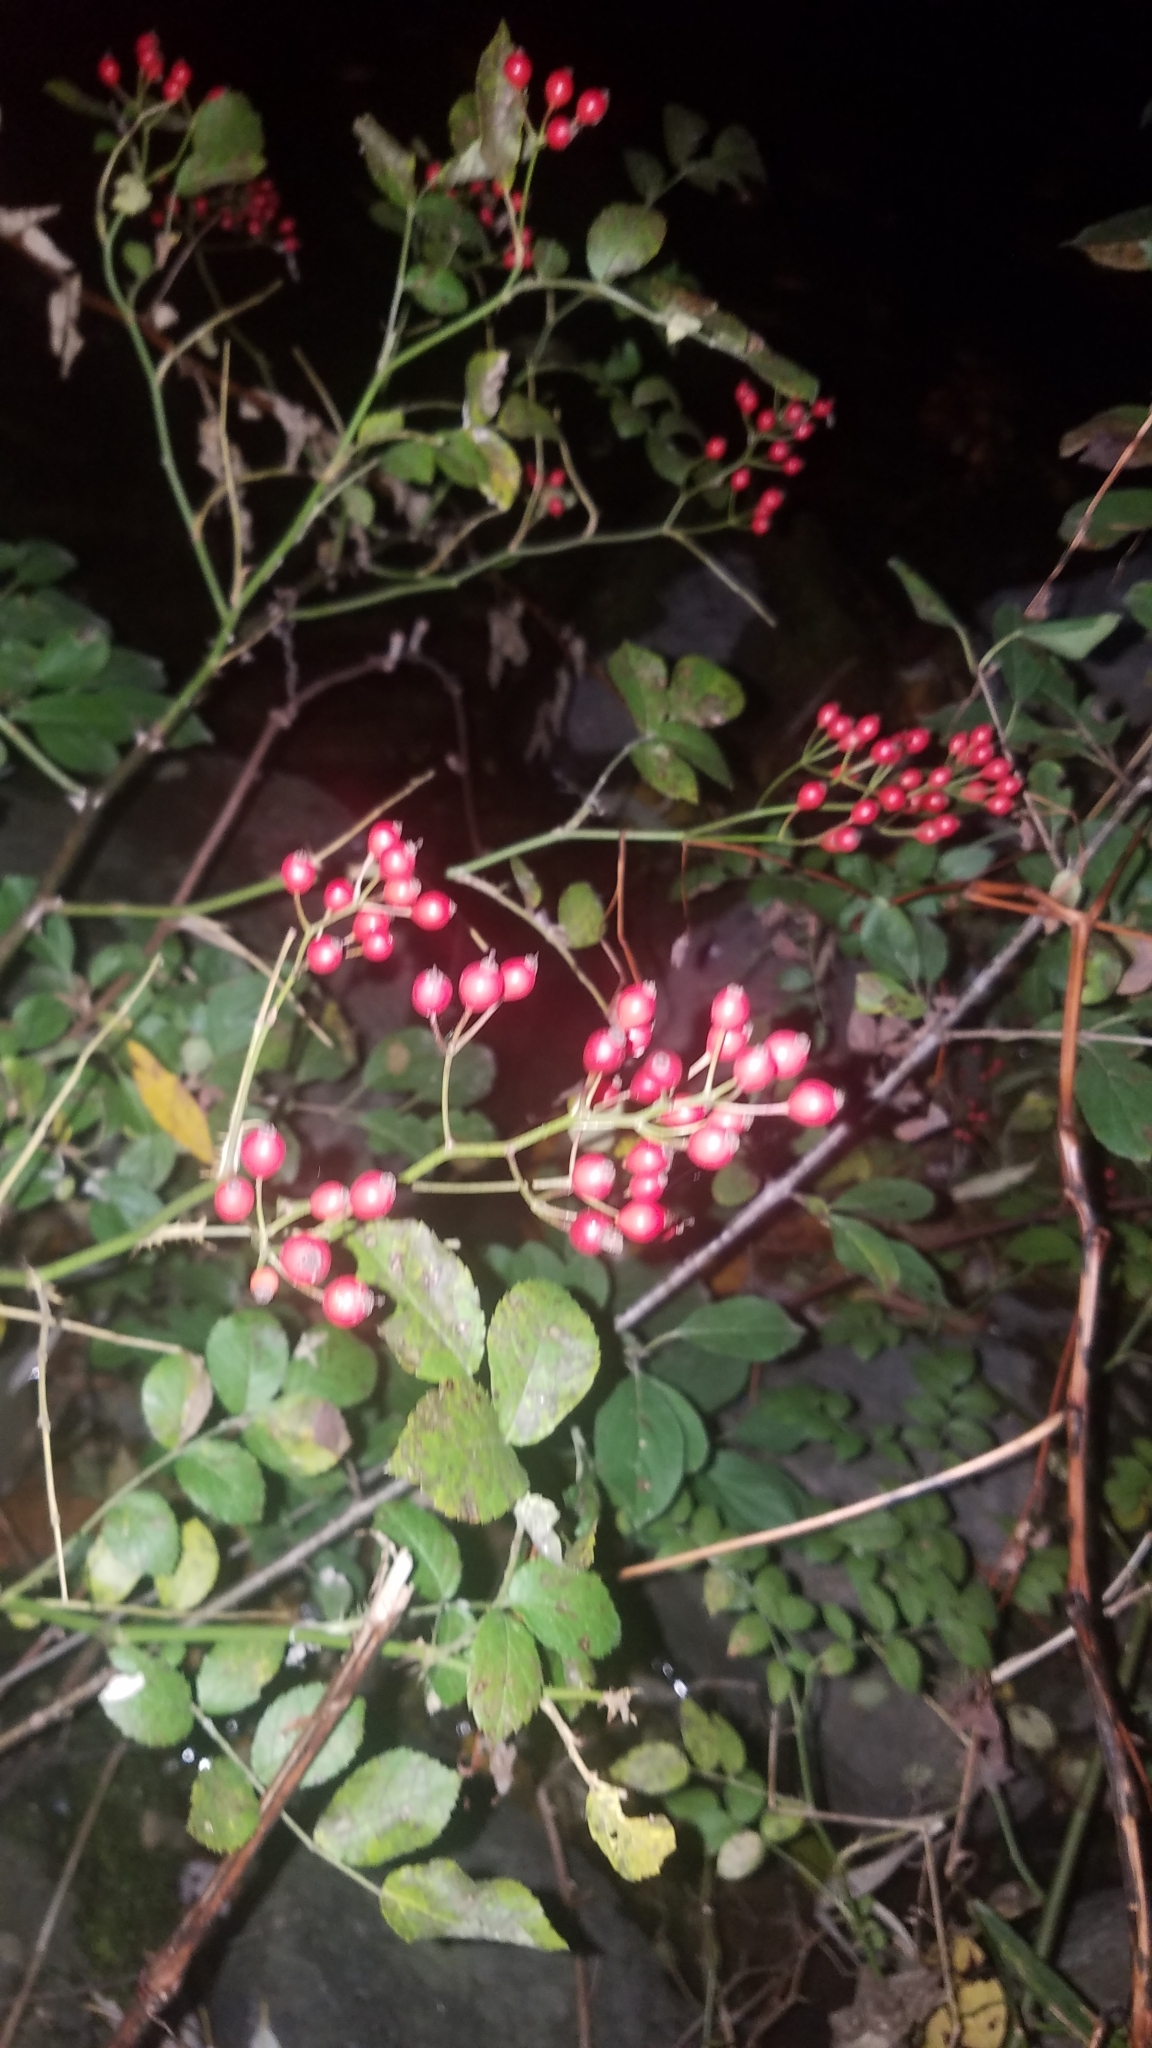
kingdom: Plantae
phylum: Tracheophyta
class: Magnoliopsida
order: Rosales
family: Rosaceae
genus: Rosa
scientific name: Rosa multiflora
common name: Multiflora rose
